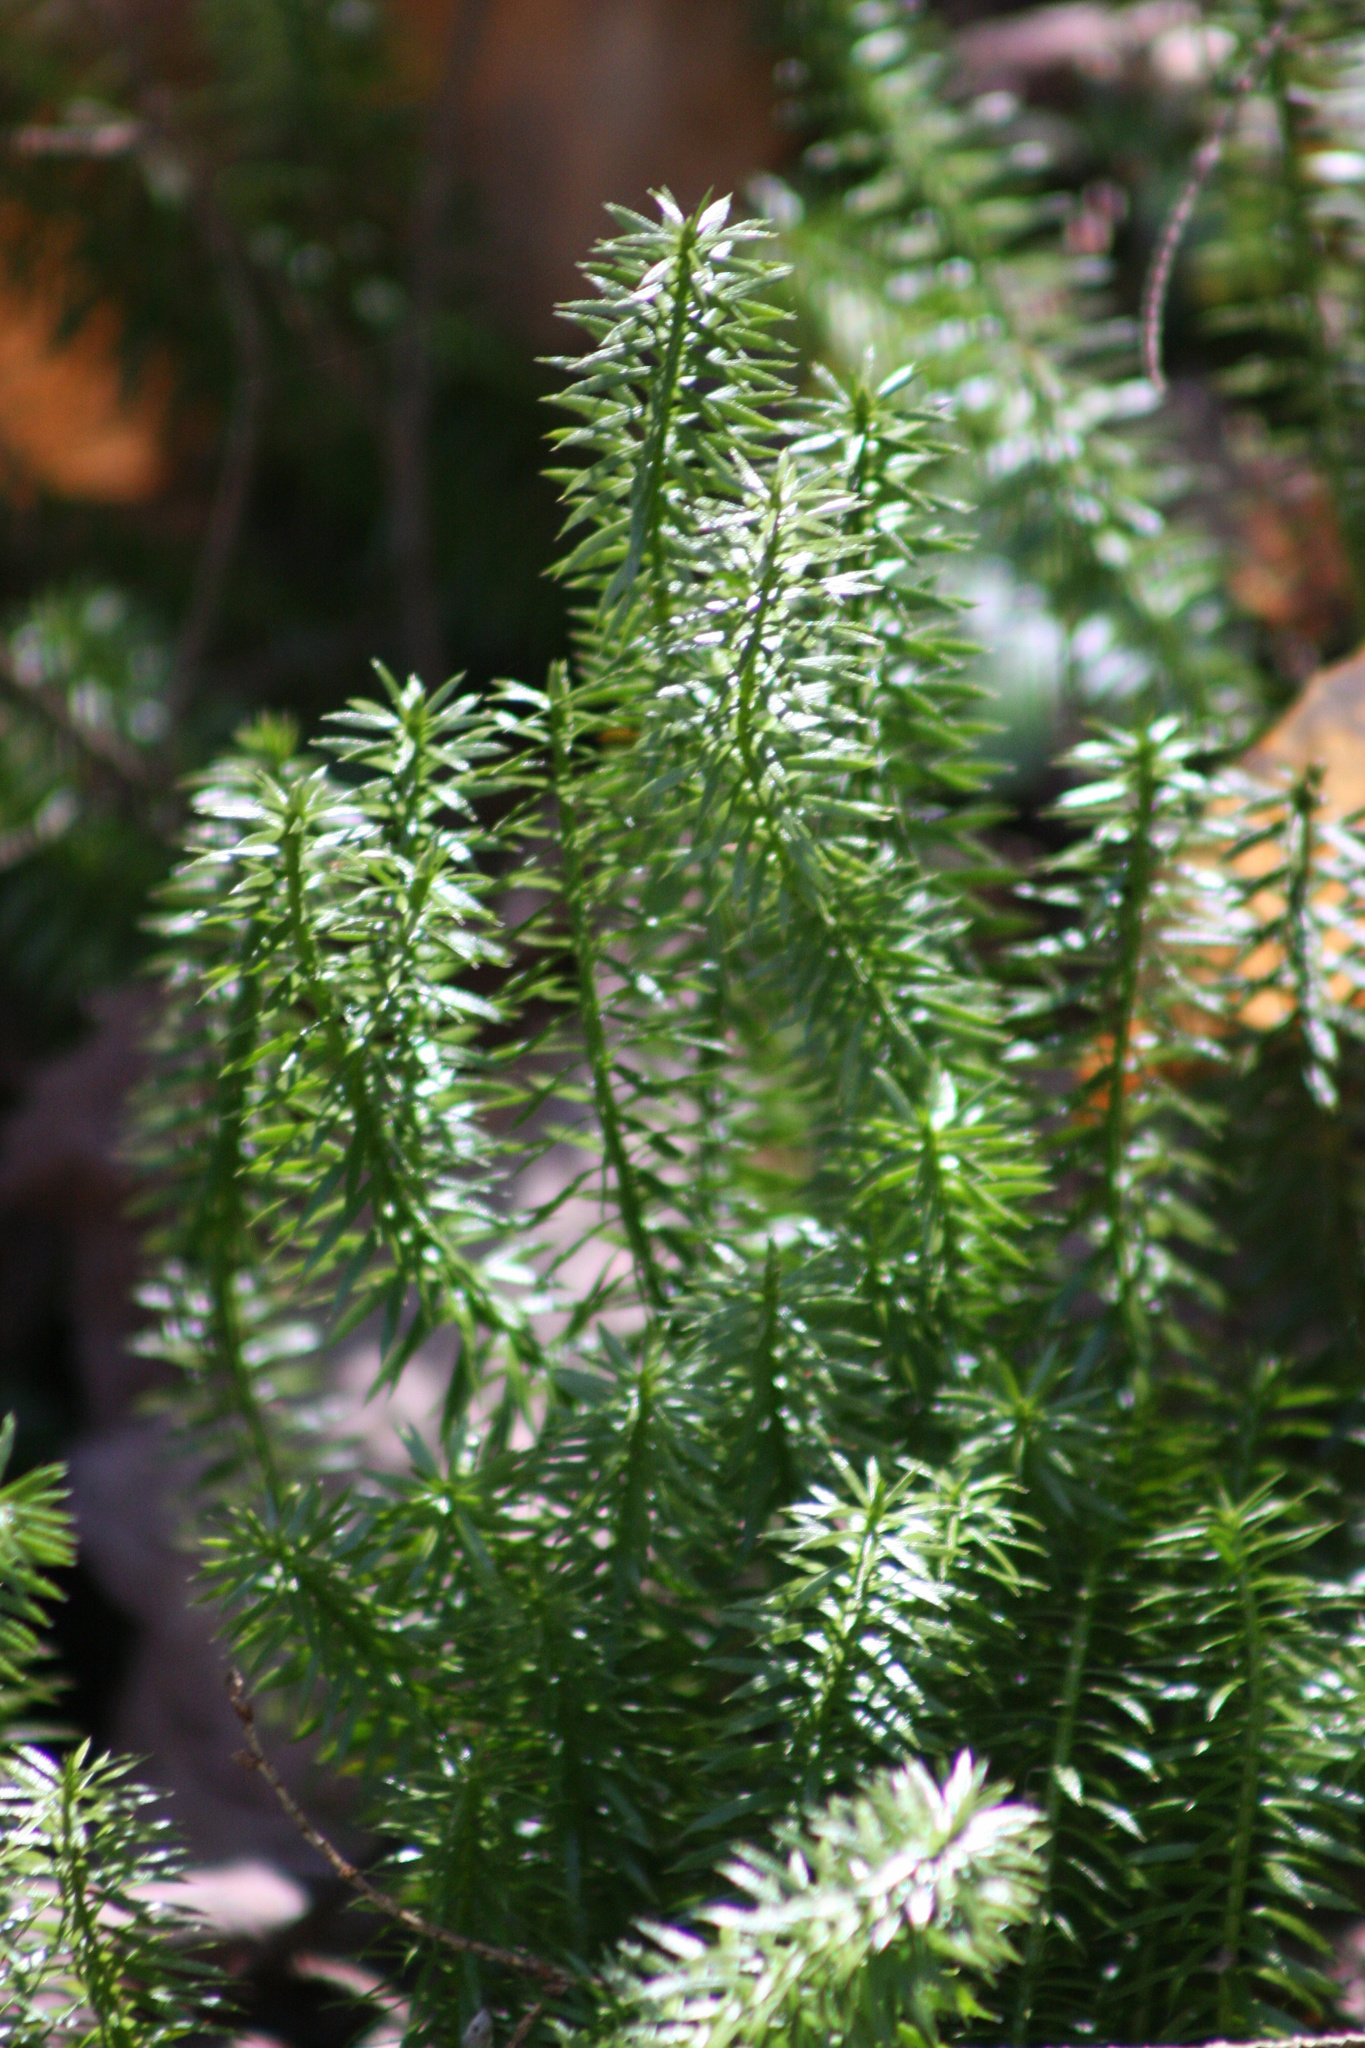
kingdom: Plantae
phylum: Tracheophyta
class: Lycopodiopsida
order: Lycopodiales
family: Lycopodiaceae
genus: Huperzia
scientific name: Huperzia lucidula
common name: Shining clubmoss
